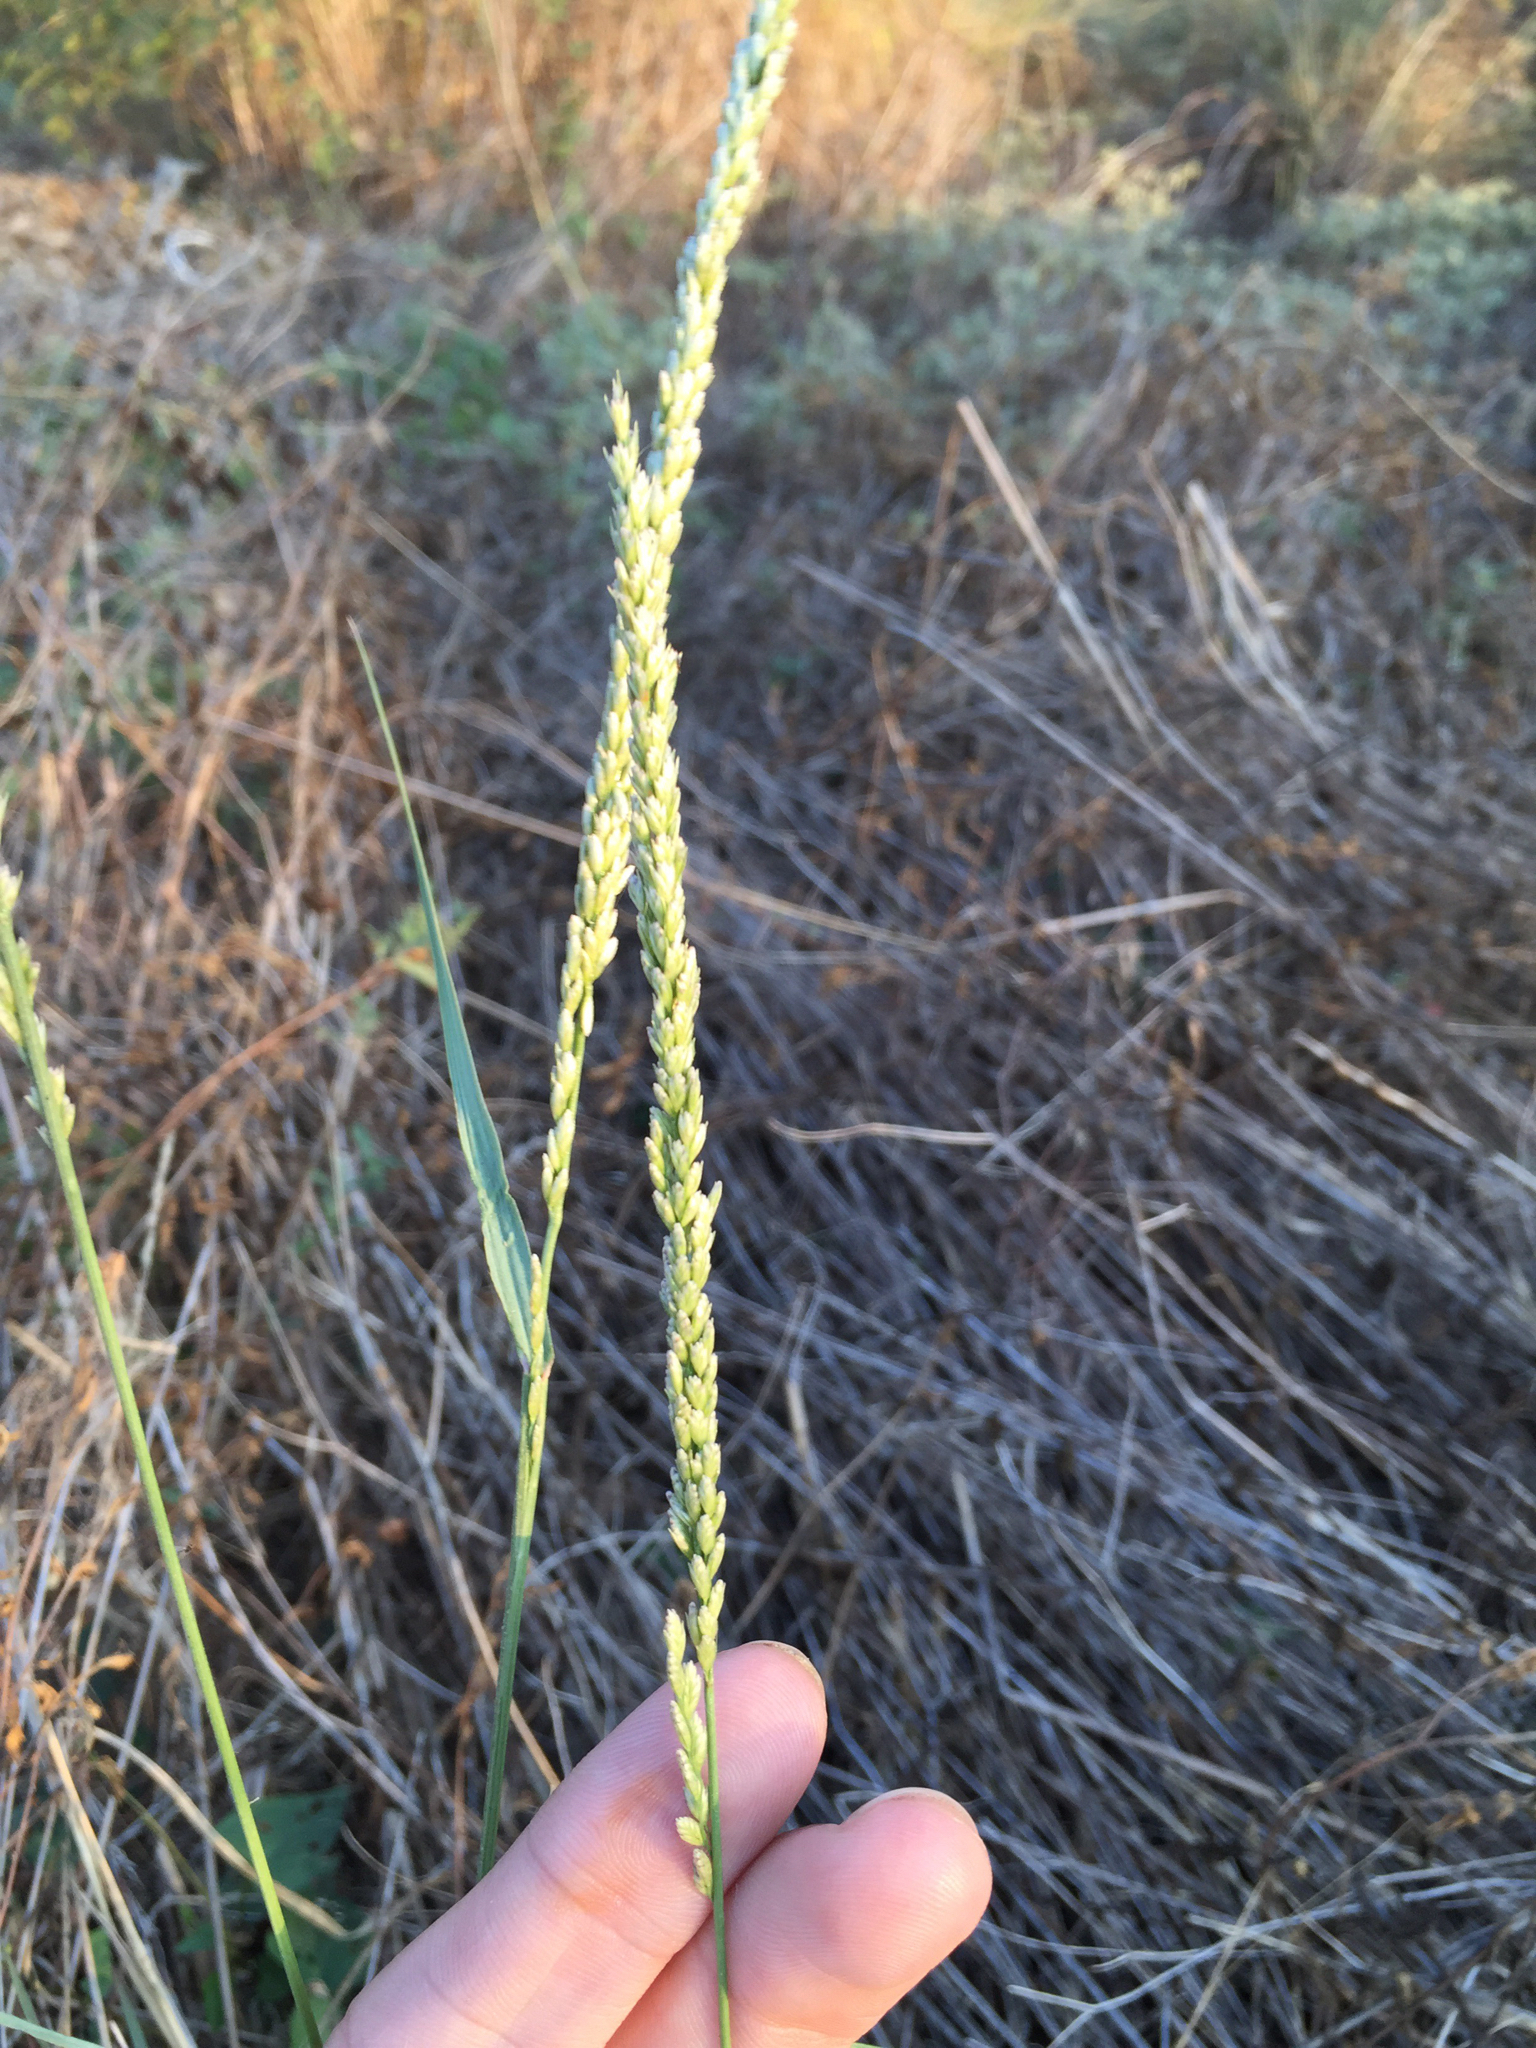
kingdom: Plantae
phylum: Tracheophyta
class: Liliopsida
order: Poales
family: Poaceae
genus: Tridens
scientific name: Tridens albescens
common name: White tridens
